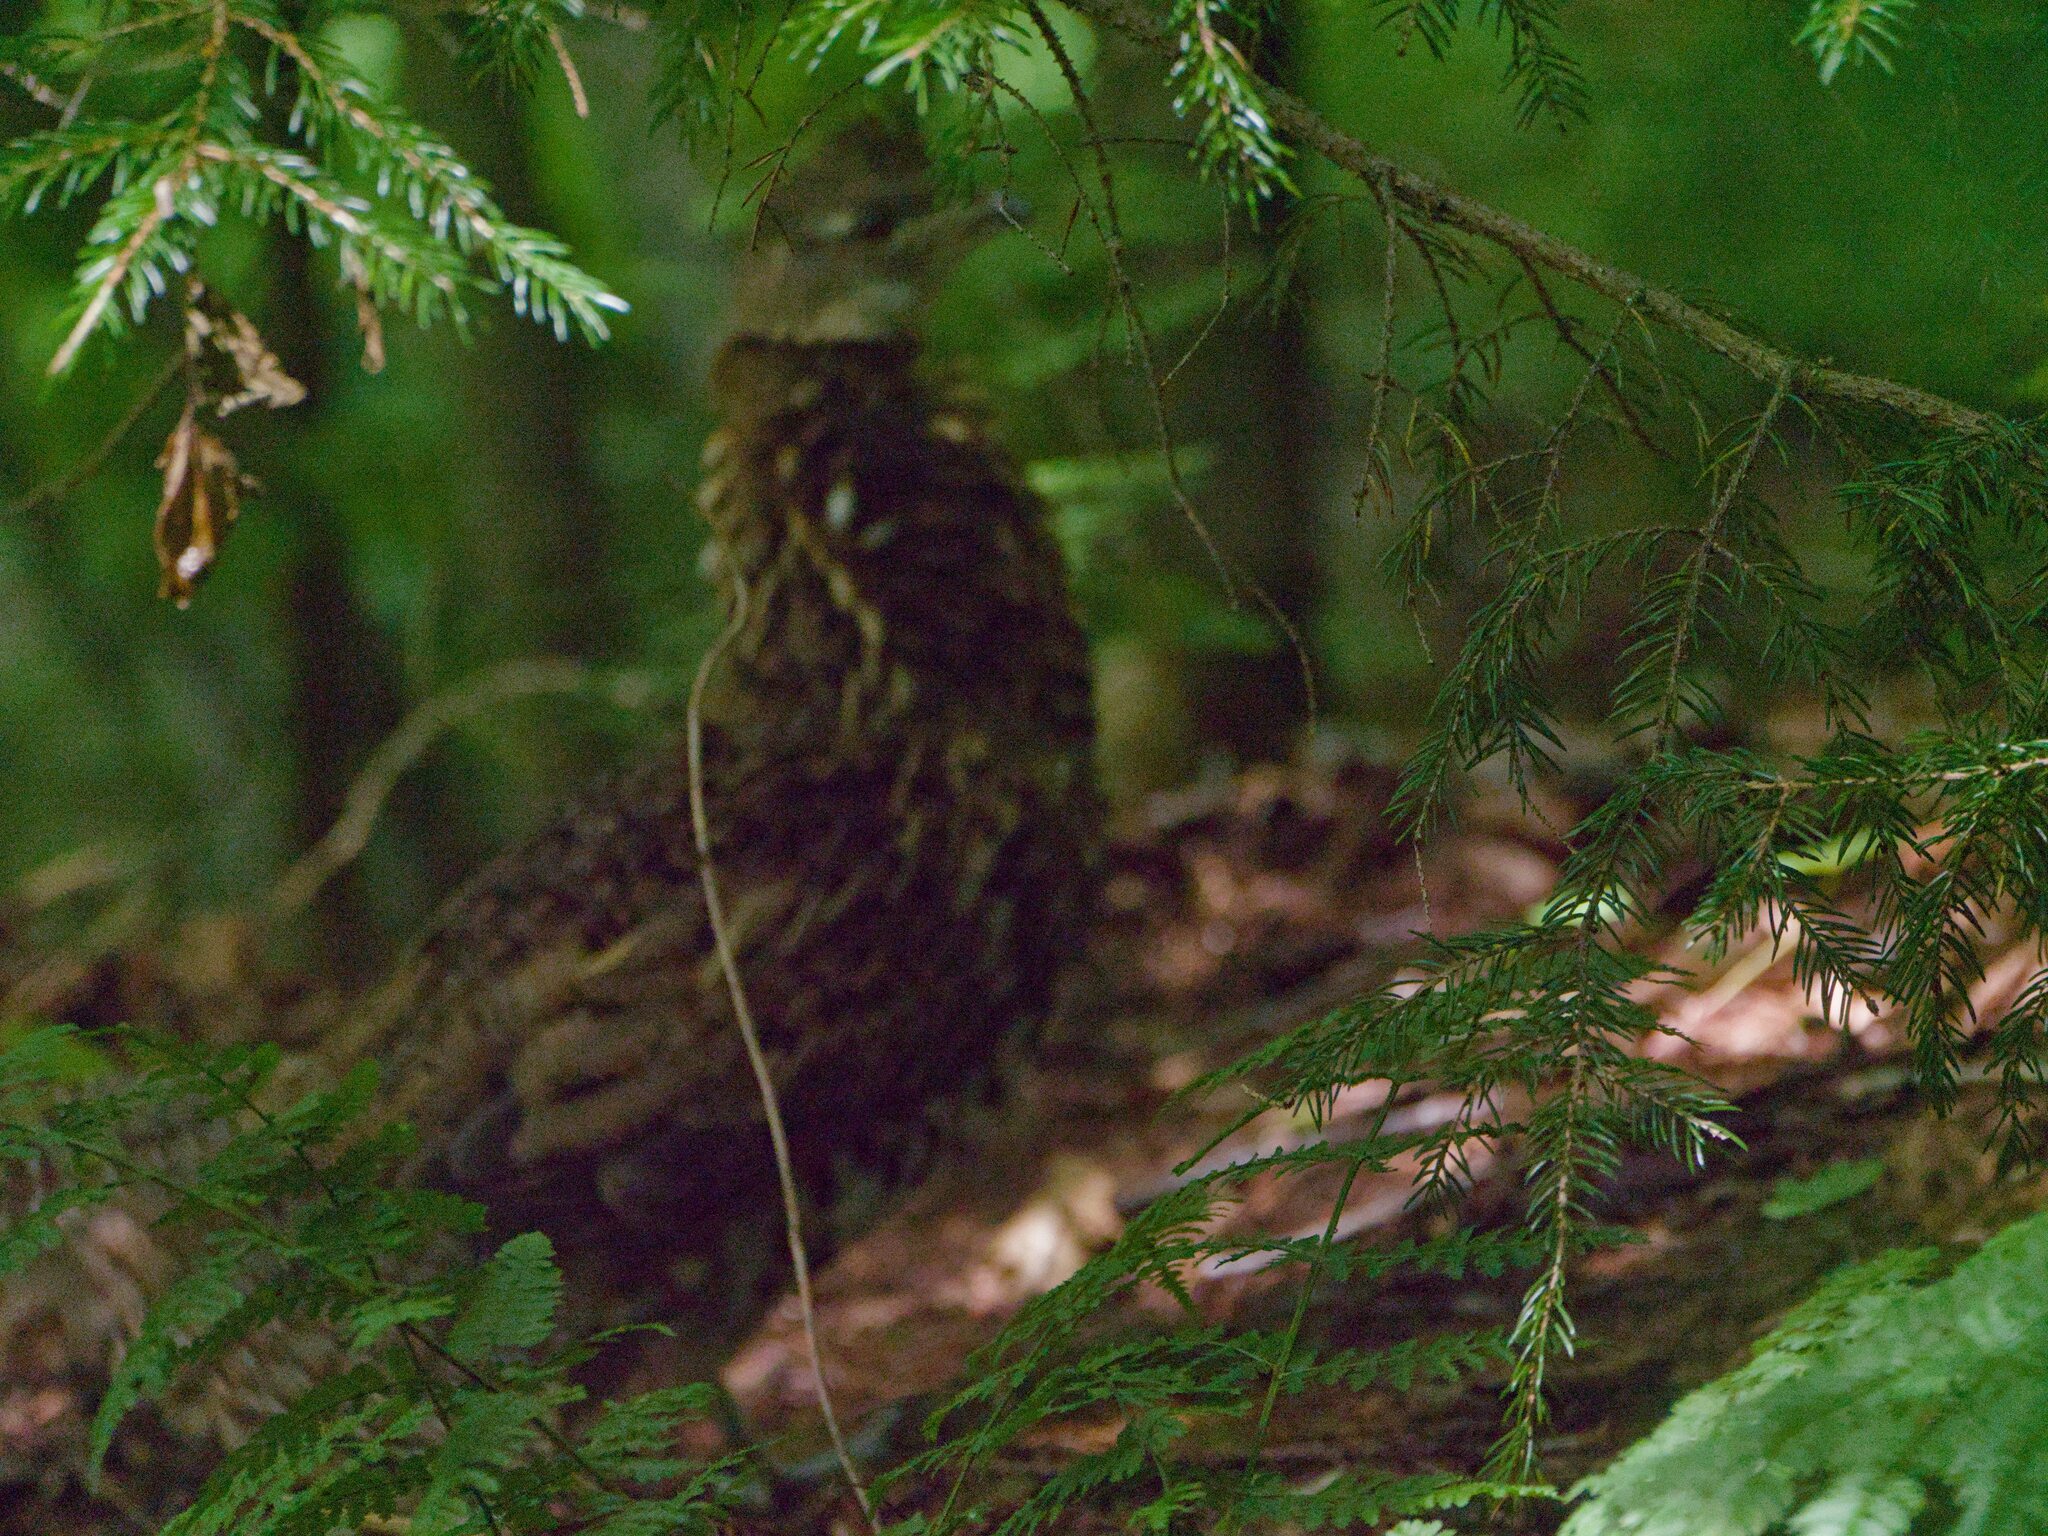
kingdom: Animalia
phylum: Chordata
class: Aves
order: Galliformes
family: Phasianidae
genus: Bonasa
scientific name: Bonasa umbellus
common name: Ruffed grouse
